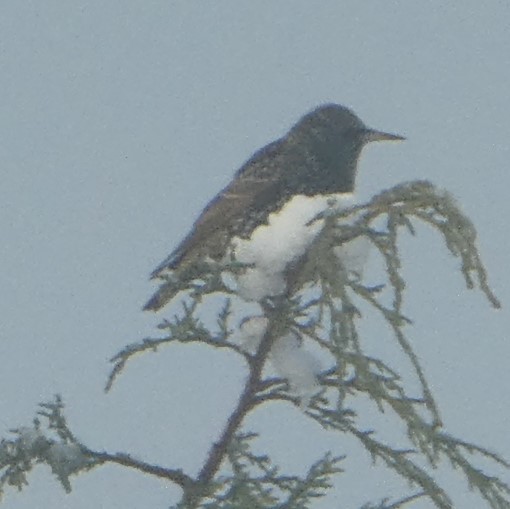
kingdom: Animalia
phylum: Chordata
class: Aves
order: Passeriformes
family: Sturnidae
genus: Sturnus
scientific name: Sturnus vulgaris
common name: Common starling
